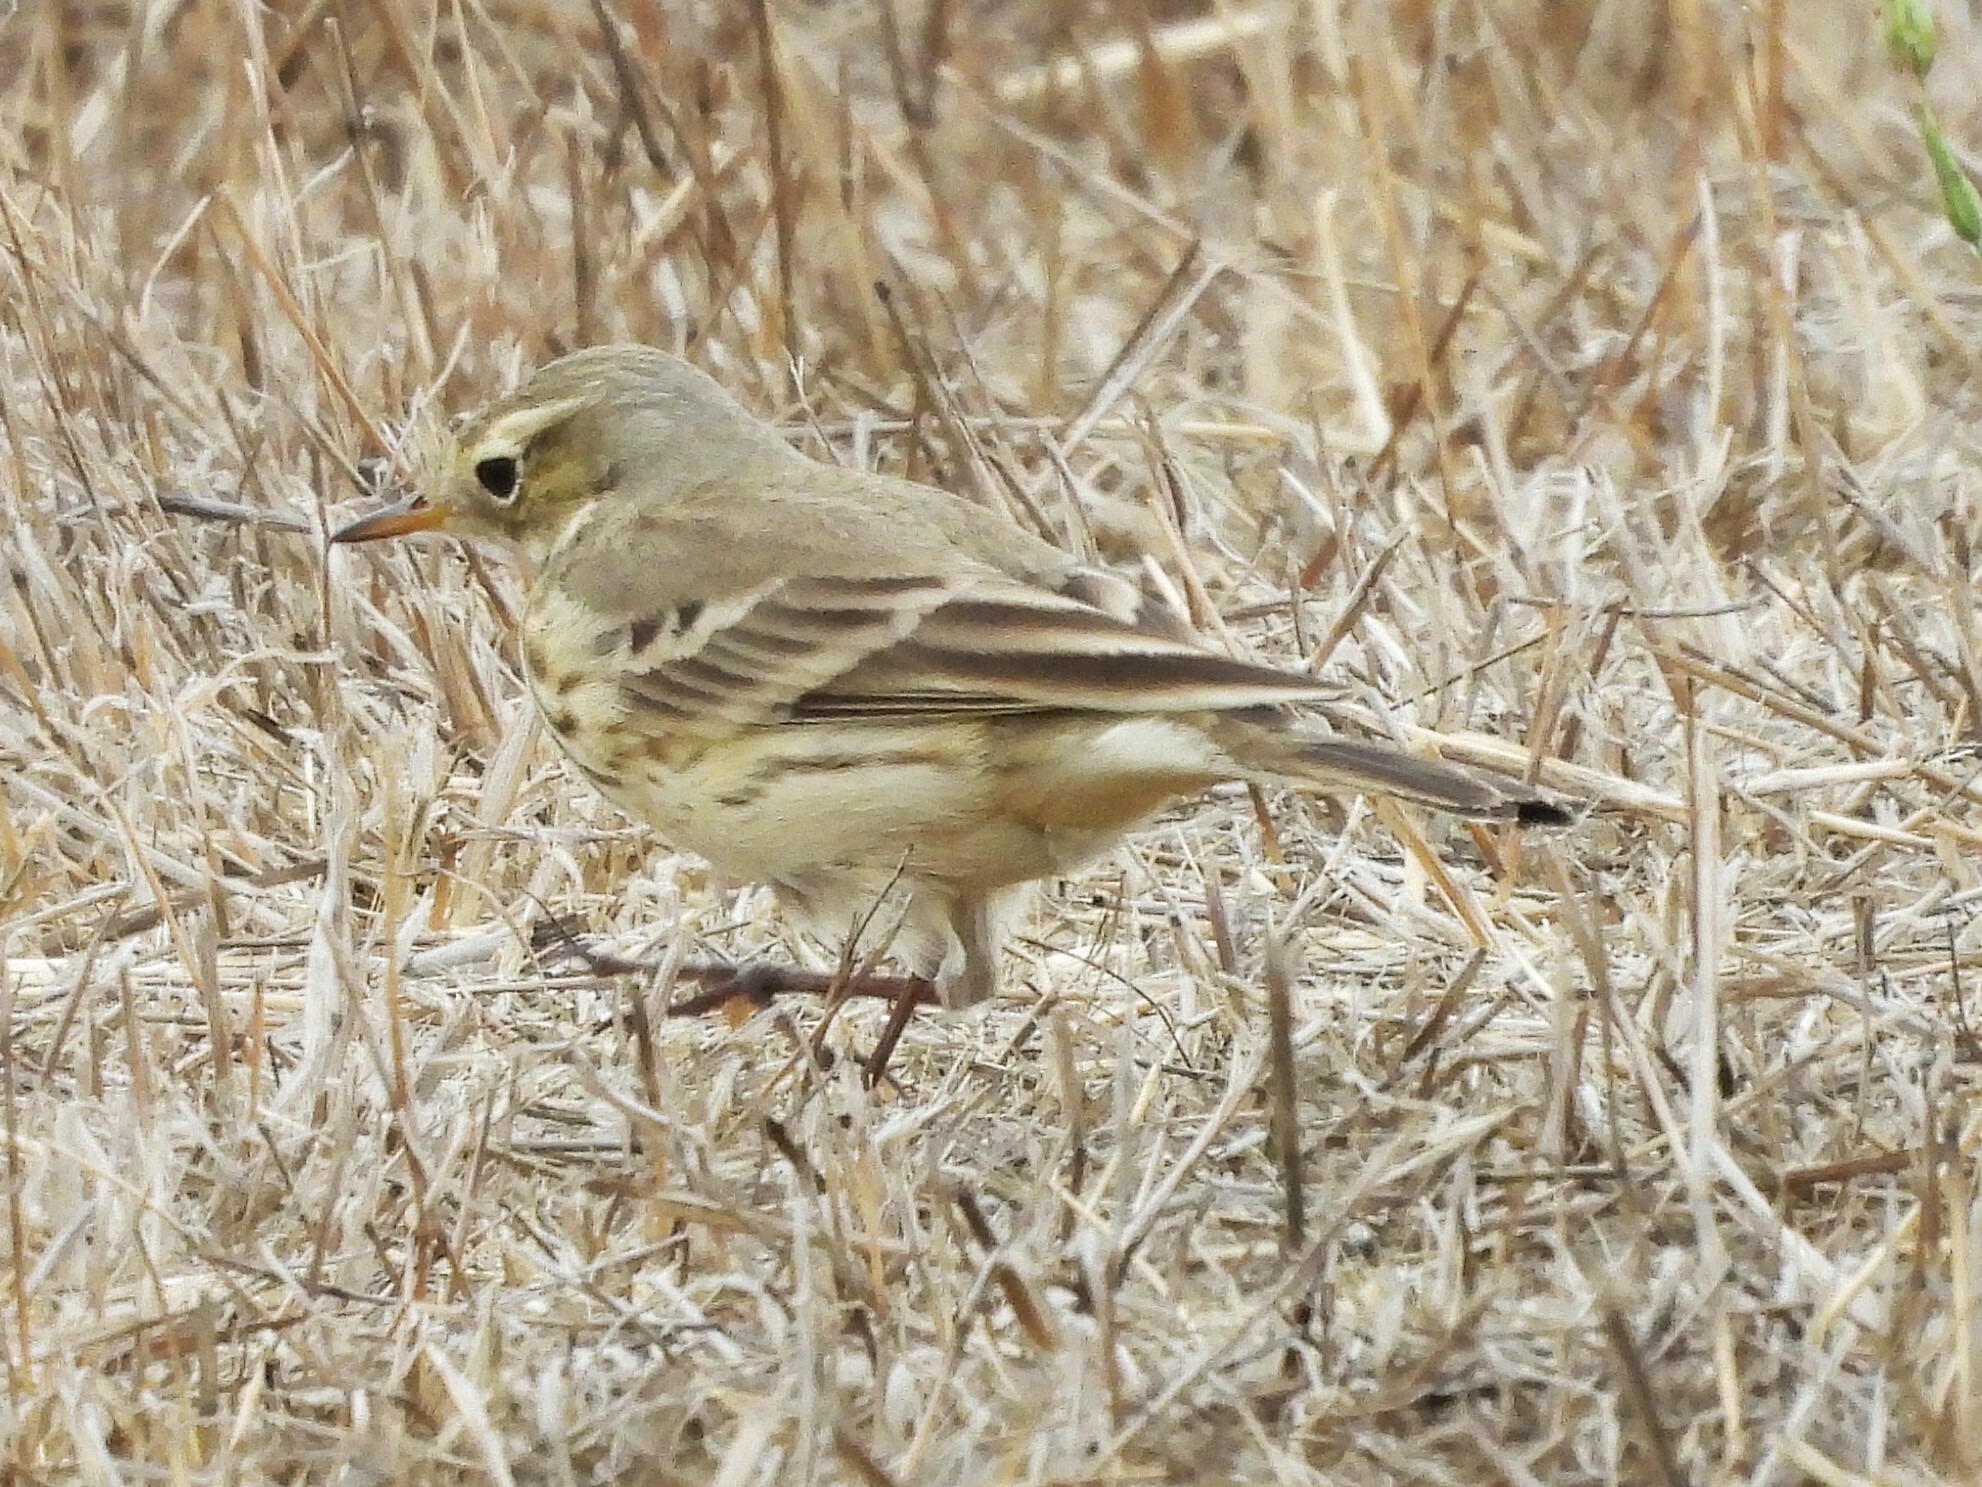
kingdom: Animalia
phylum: Chordata
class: Aves
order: Passeriformes
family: Motacillidae
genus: Anthus
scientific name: Anthus rubescens
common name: Buff-bellied pipit
